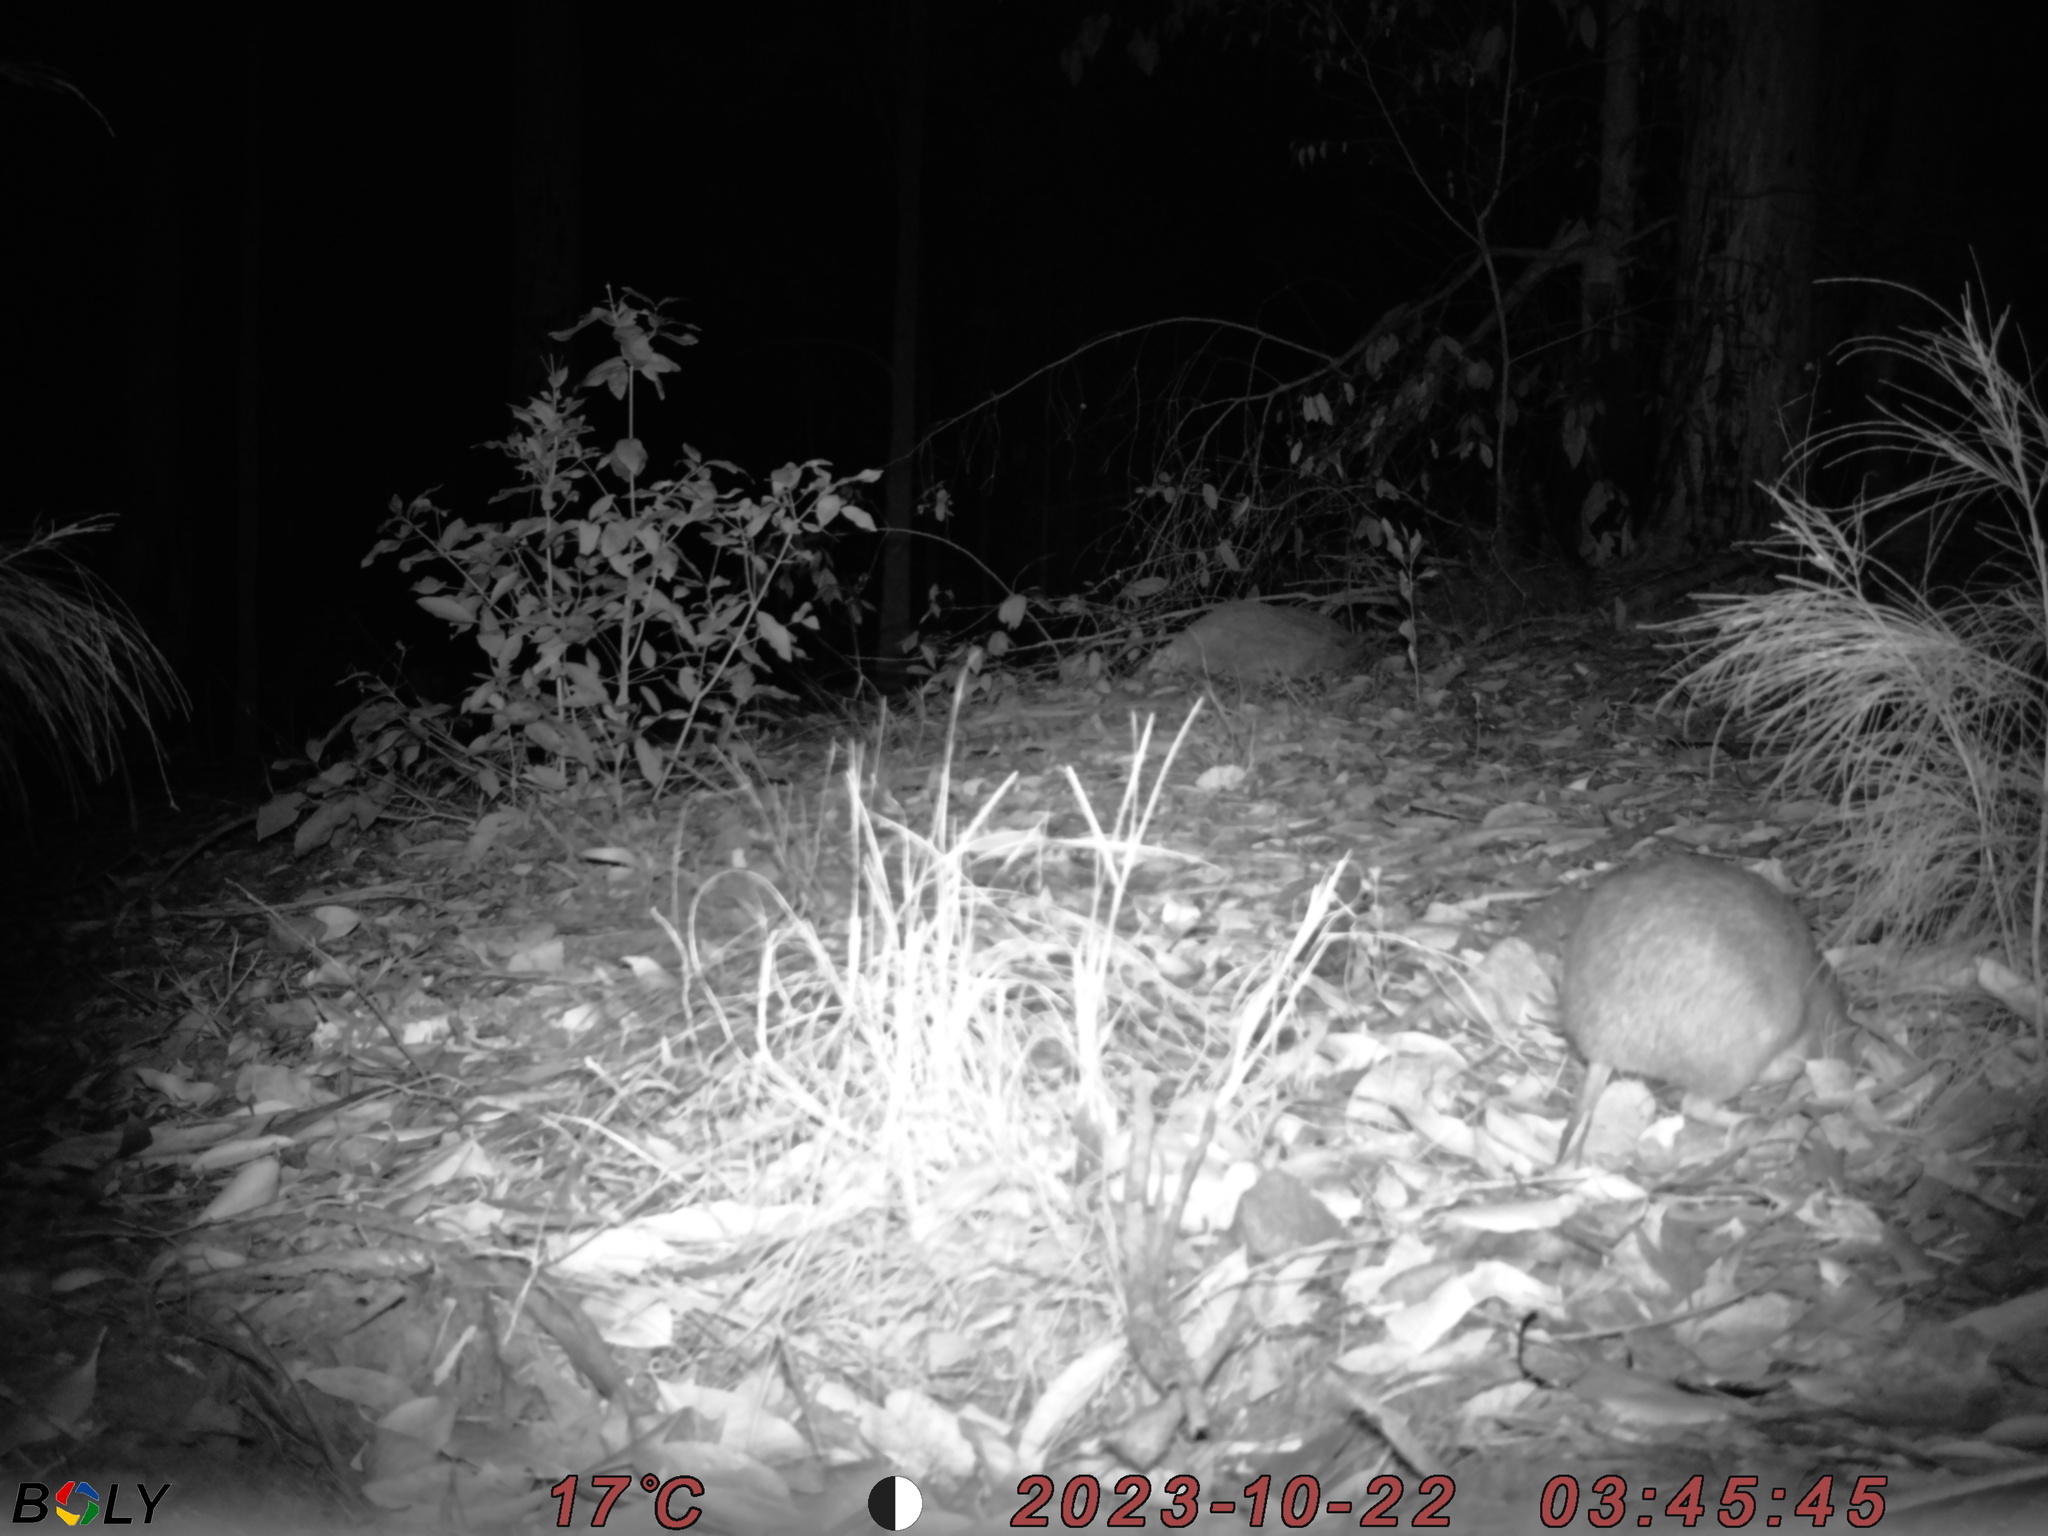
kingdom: Animalia
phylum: Chordata
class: Mammalia
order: Peramelemorphia
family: Peramelidae
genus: Perameles
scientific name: Perameles nasuta
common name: Long-nosed bandicoot
